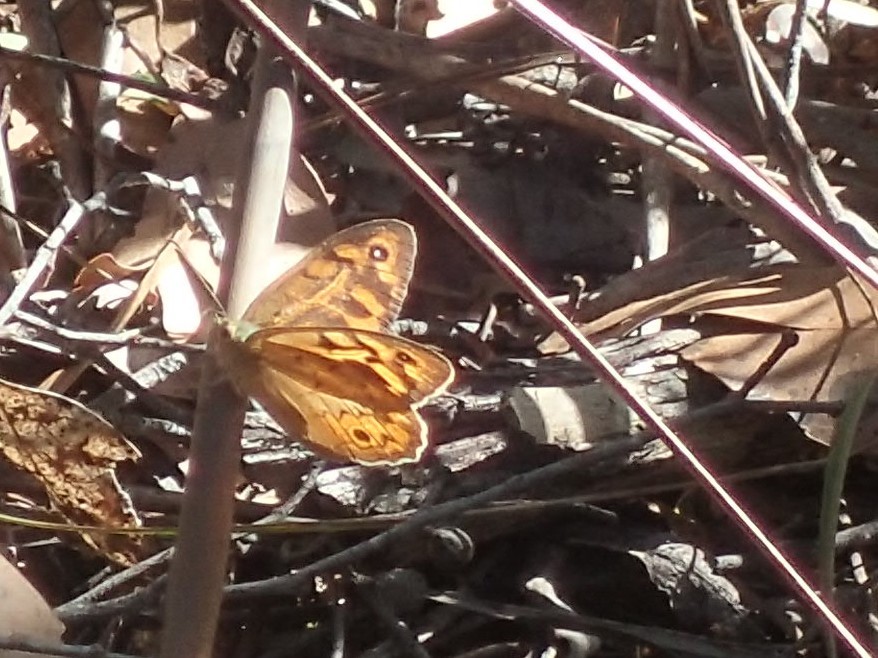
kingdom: Animalia
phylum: Arthropoda
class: Insecta
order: Lepidoptera
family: Nymphalidae
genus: Heteronympha
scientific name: Heteronympha merope
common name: Common brown
